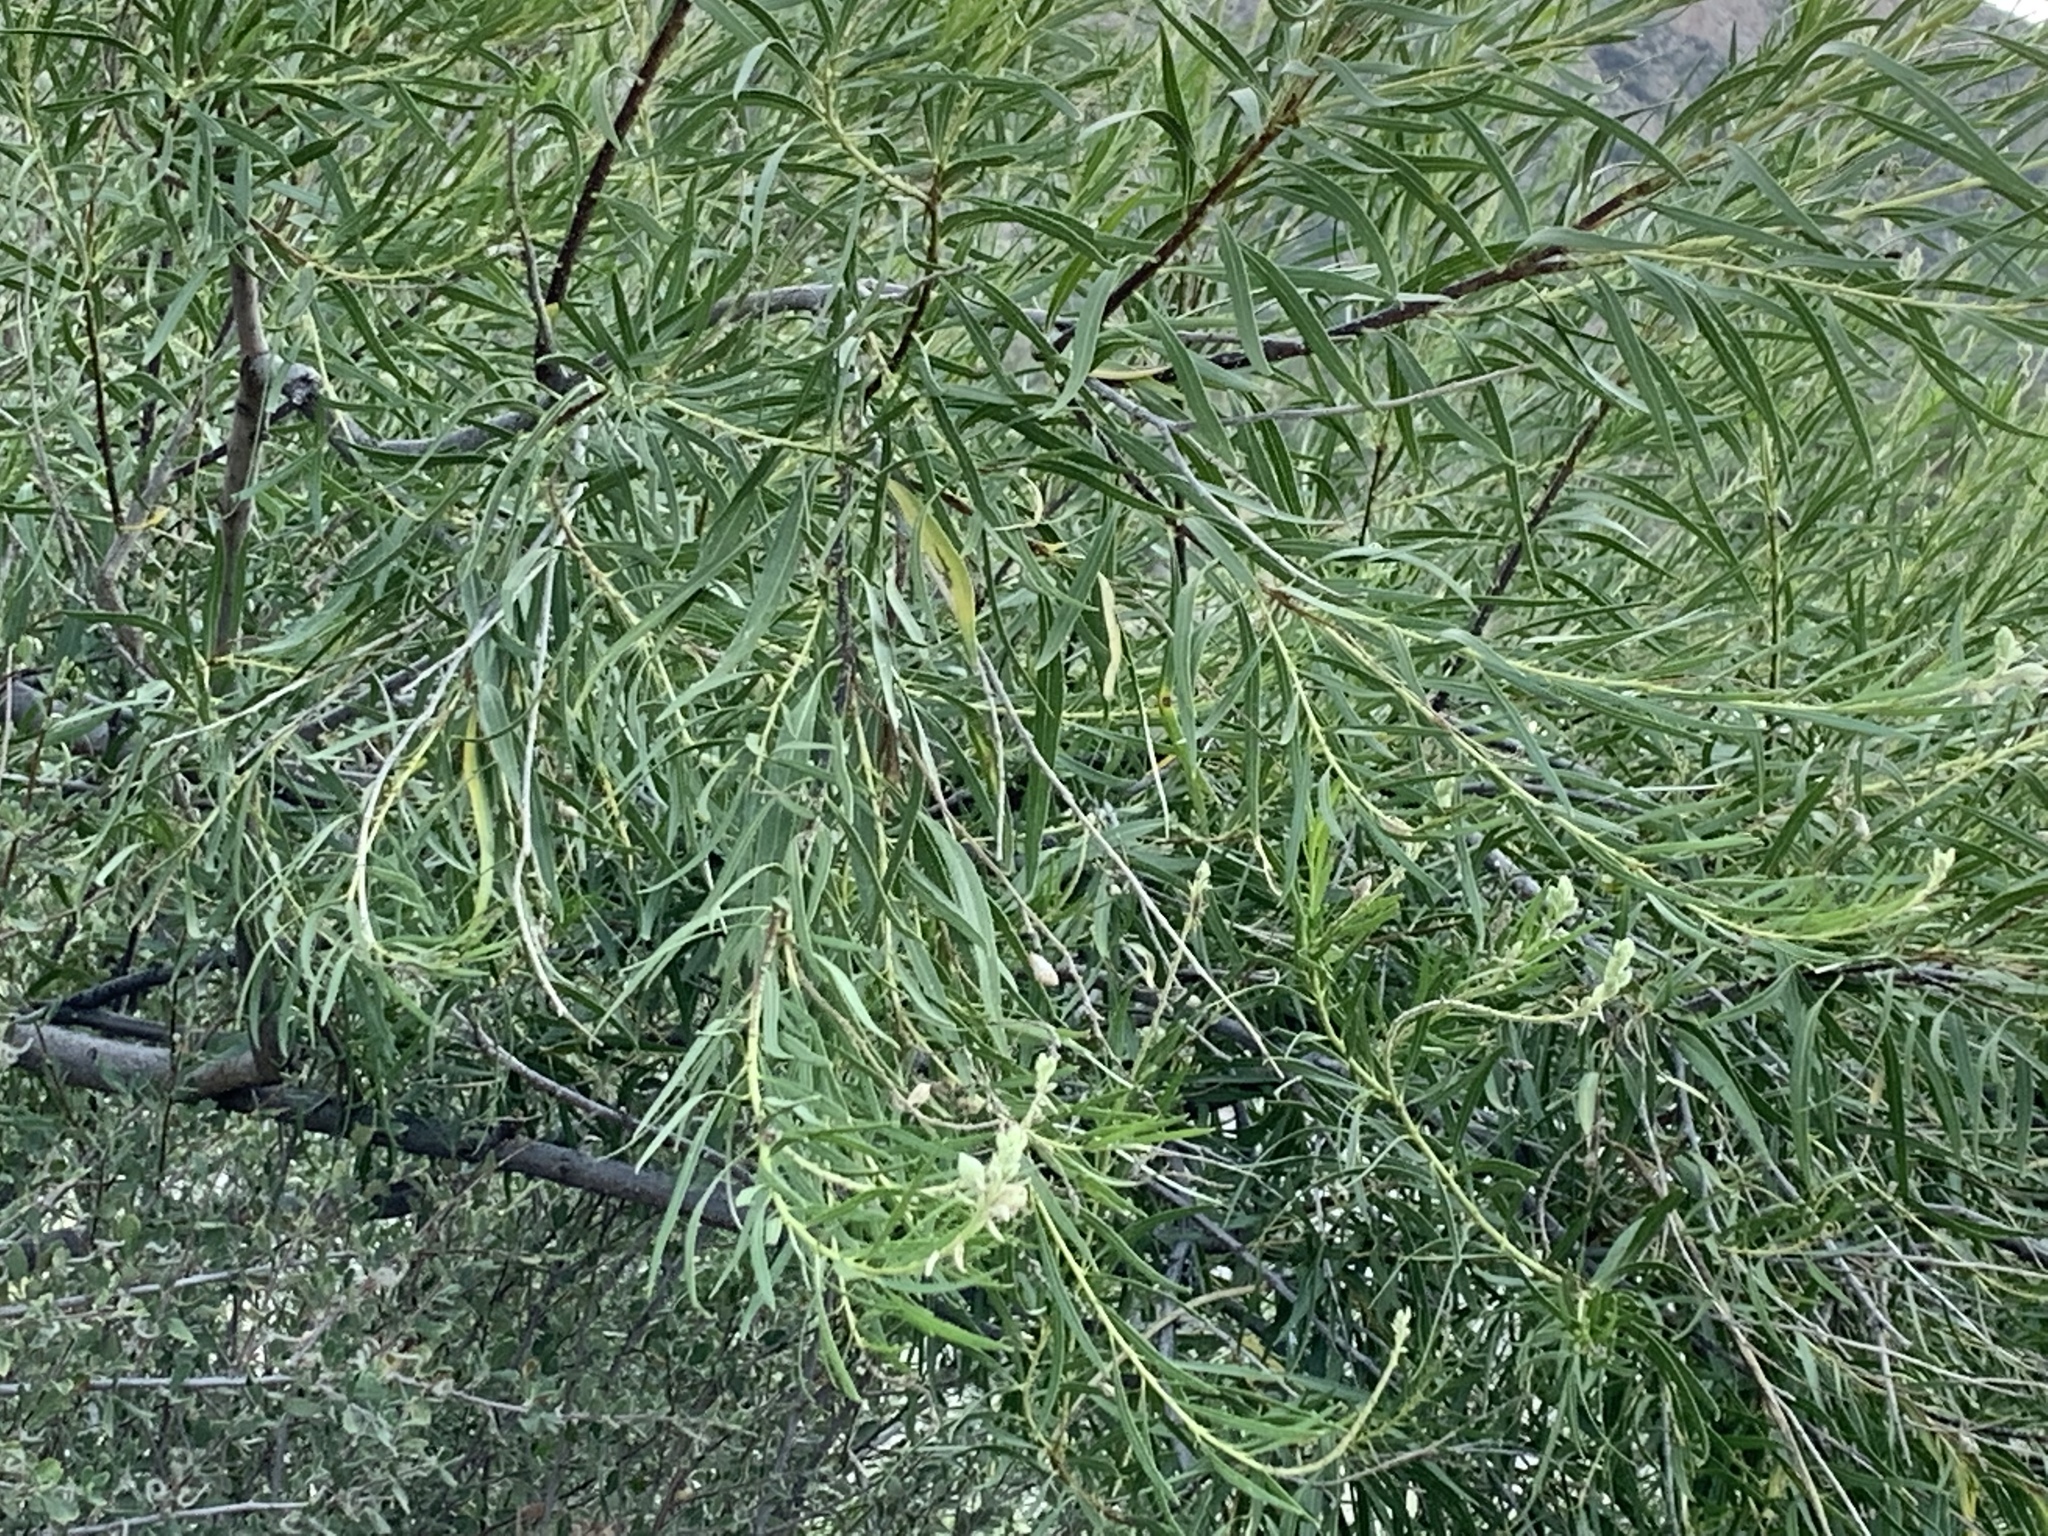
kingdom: Plantae
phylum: Tracheophyta
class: Magnoliopsida
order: Lamiales
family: Bignoniaceae
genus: Chilopsis
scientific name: Chilopsis linearis
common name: Desert-willow
